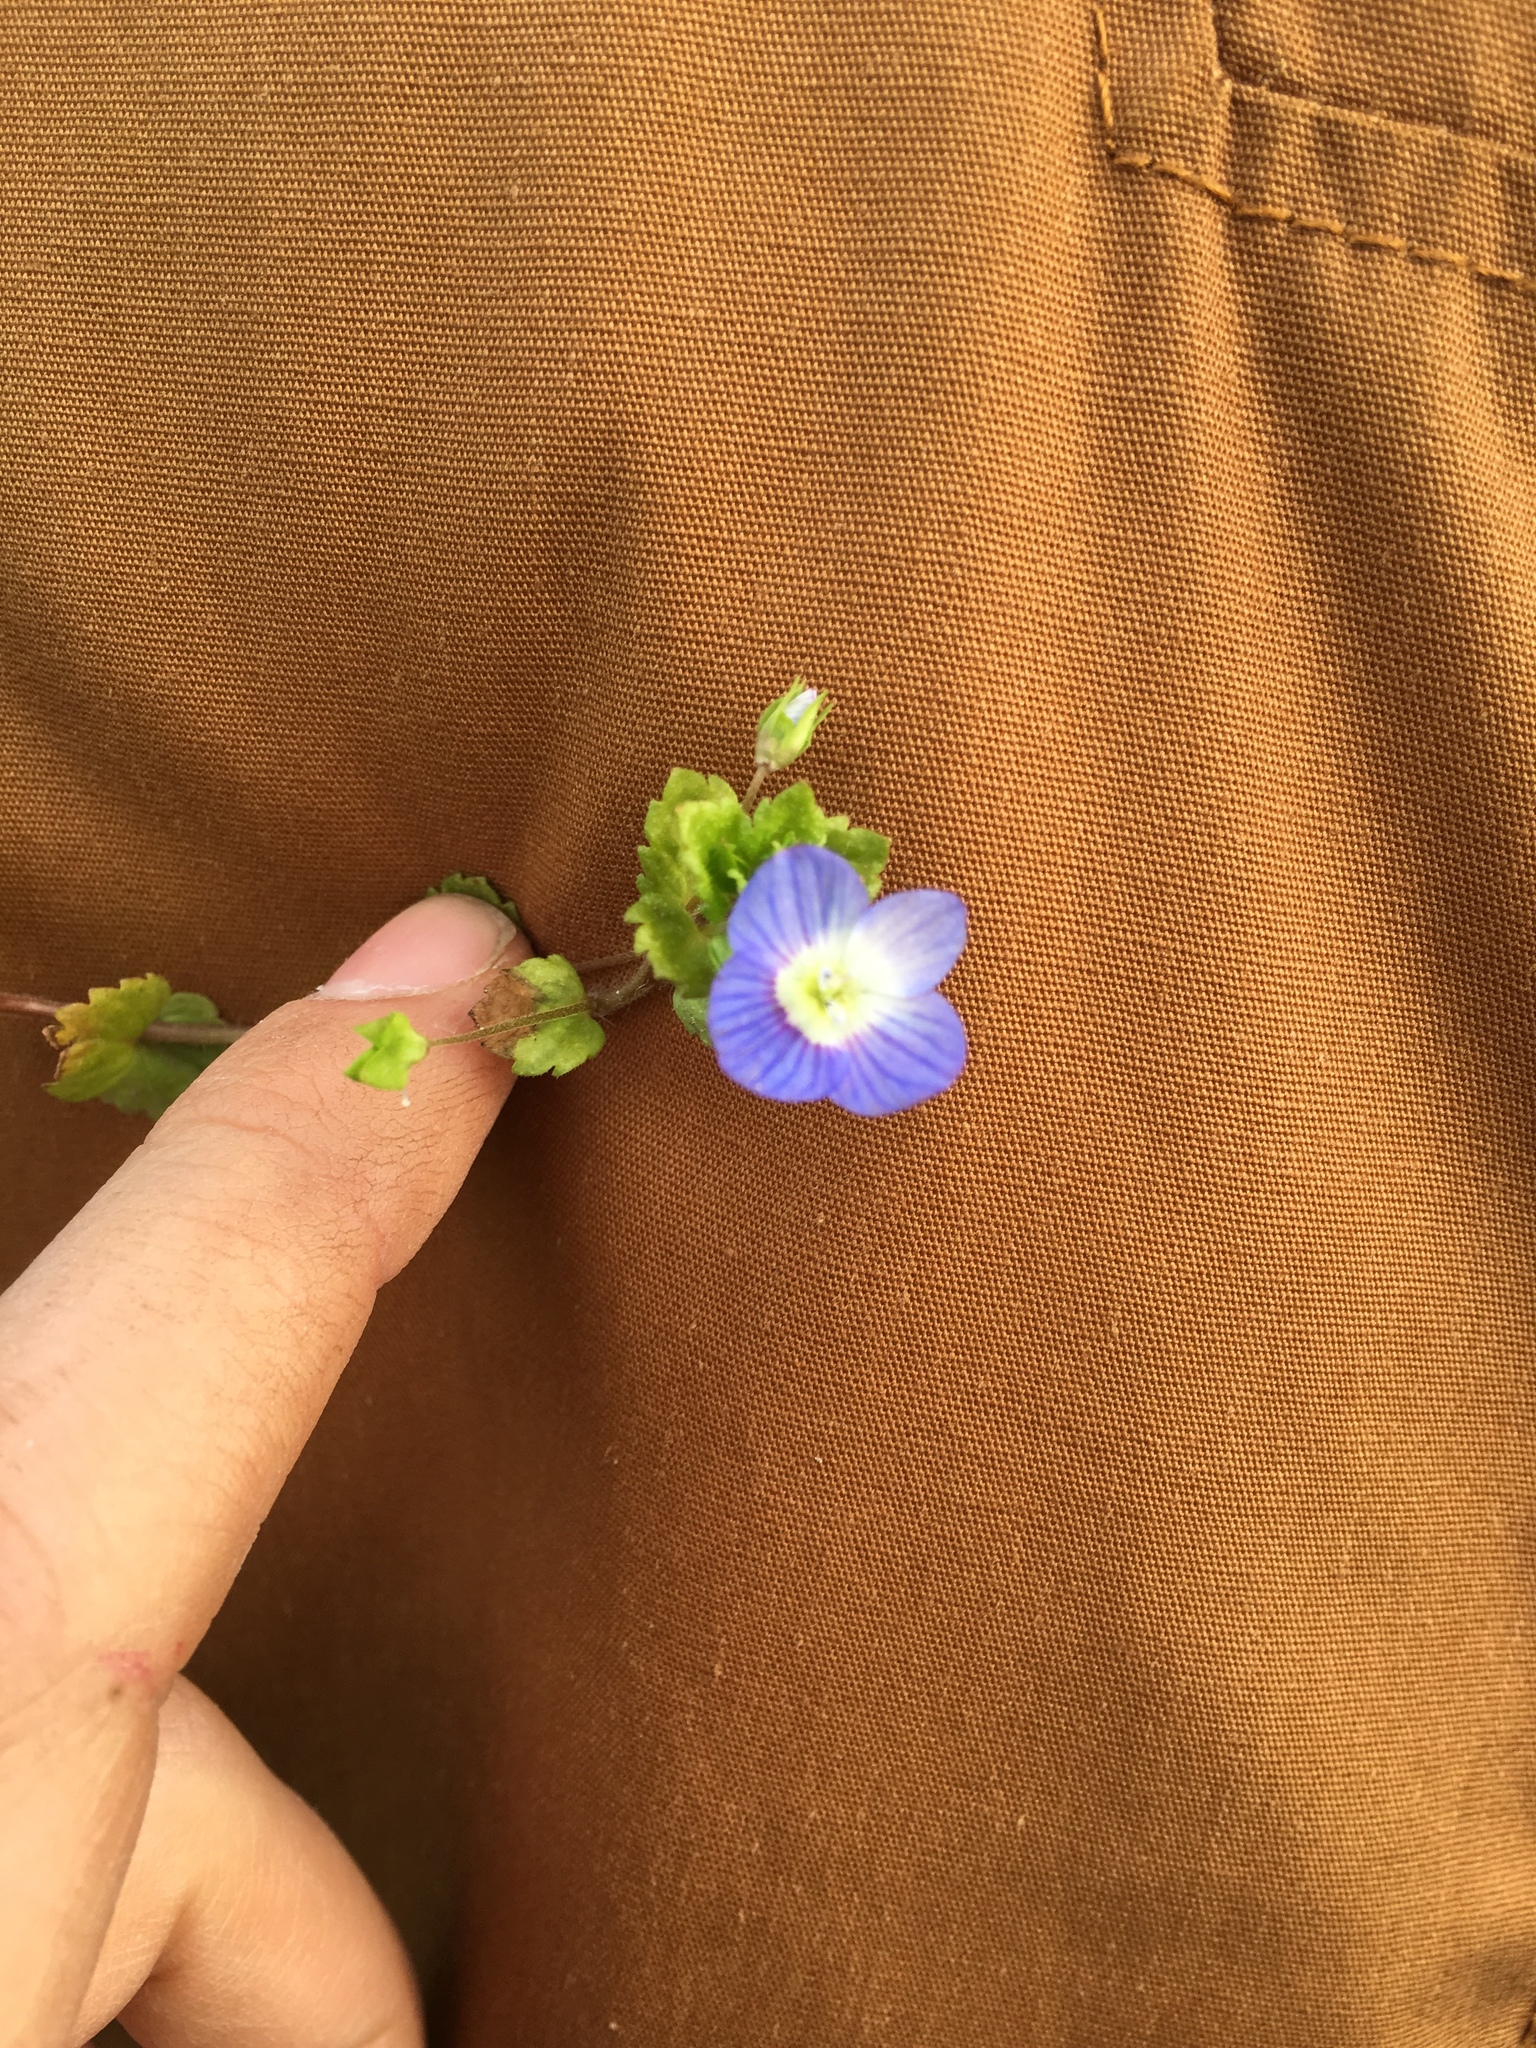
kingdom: Plantae
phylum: Tracheophyta
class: Magnoliopsida
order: Lamiales
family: Plantaginaceae
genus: Veronica
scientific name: Veronica persica
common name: Common field-speedwell
